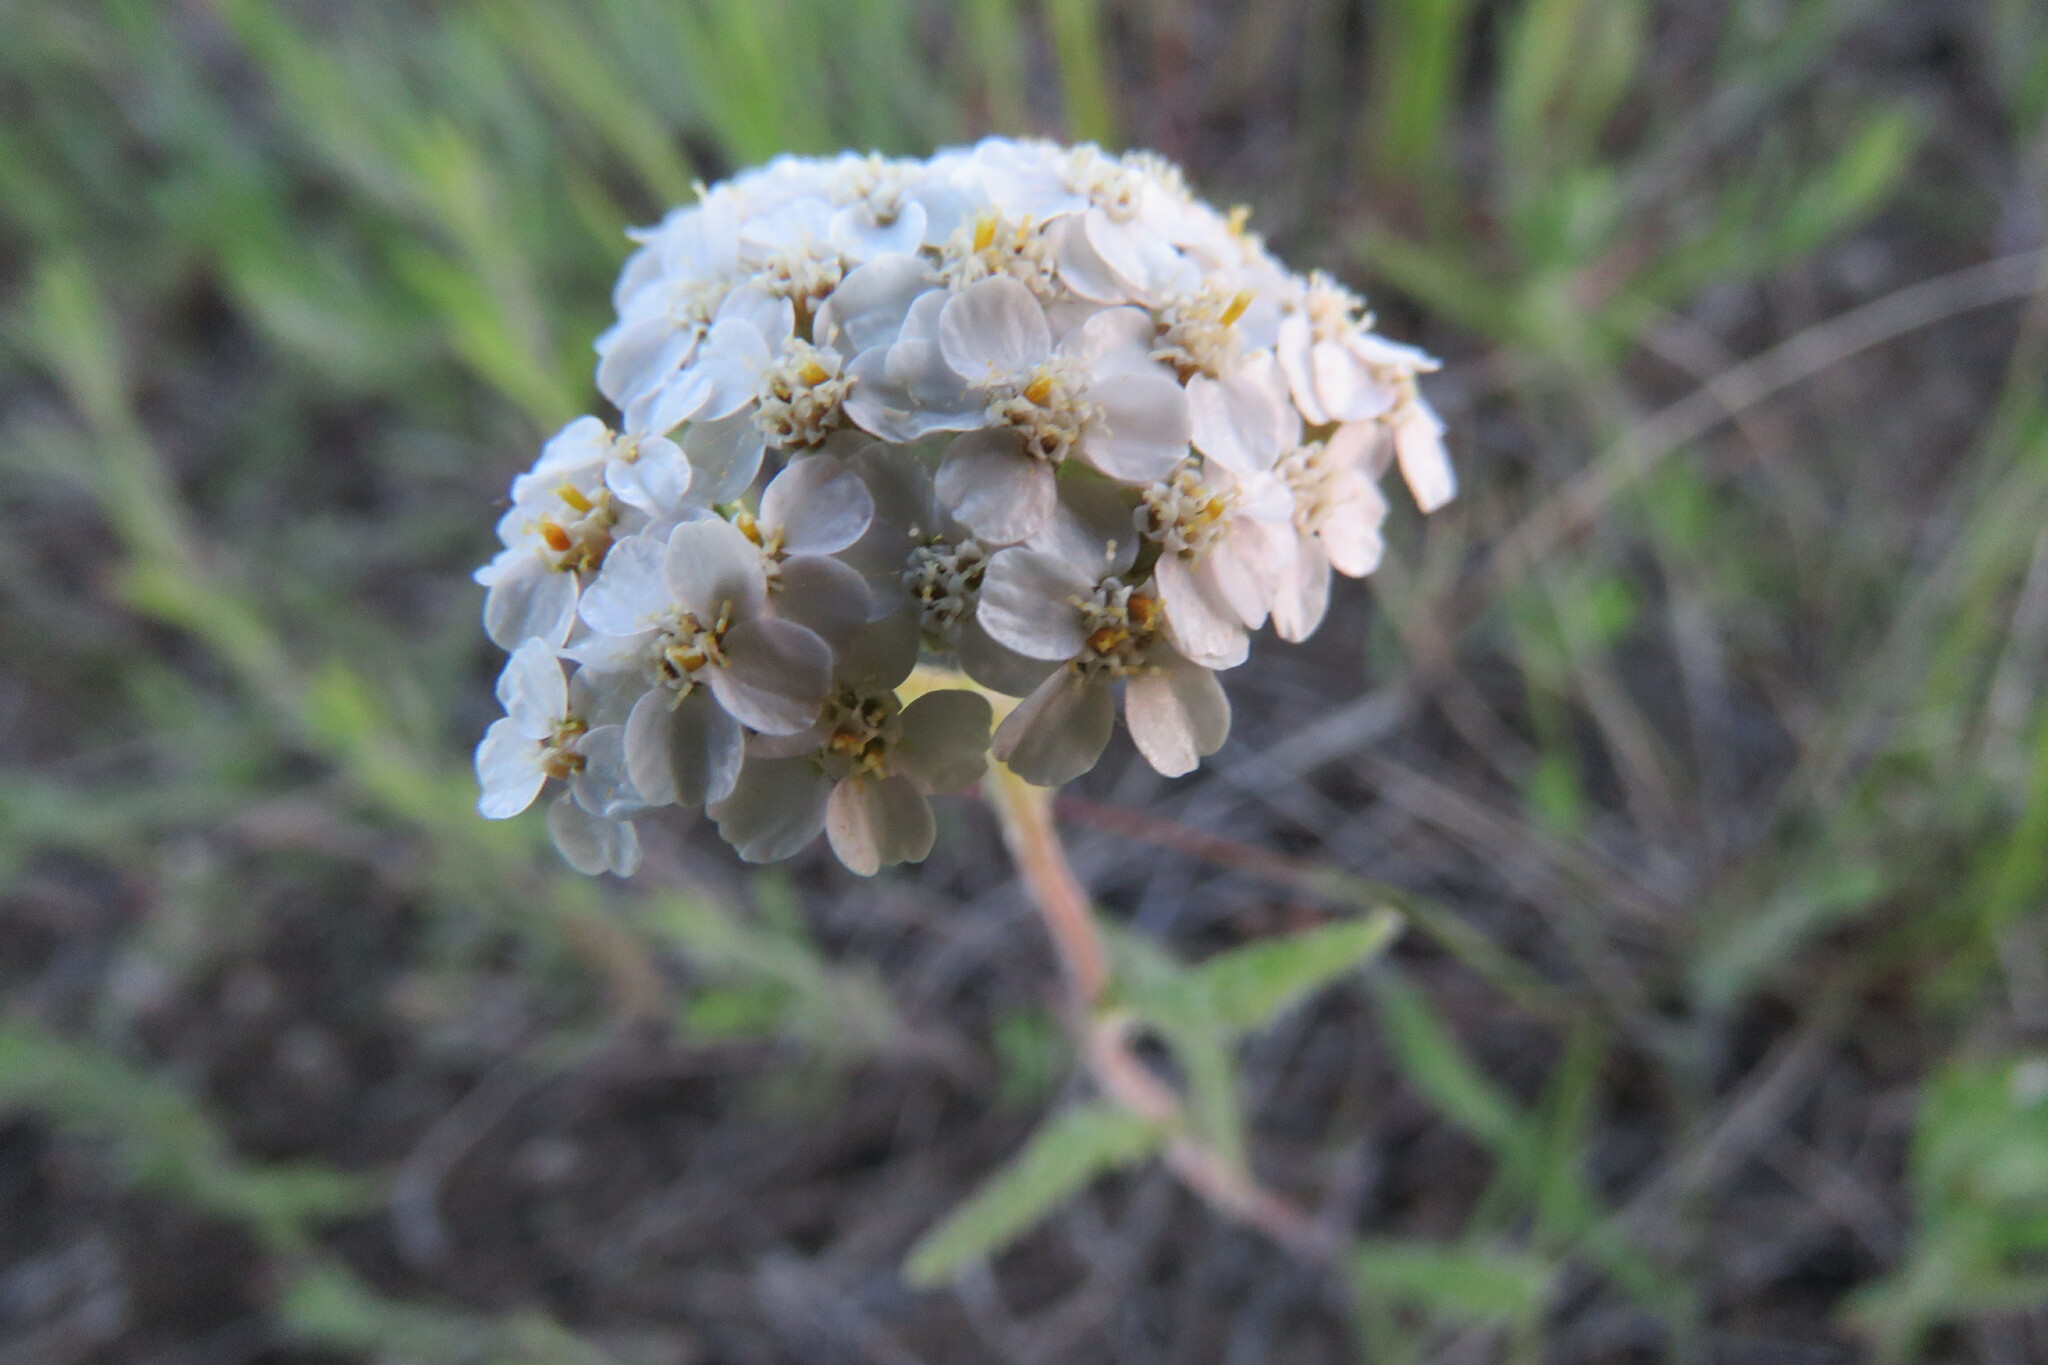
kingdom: Plantae
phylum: Tracheophyta
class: Magnoliopsida
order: Asterales
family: Asteraceae
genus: Achillea
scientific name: Achillea millefolium
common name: Yarrow
